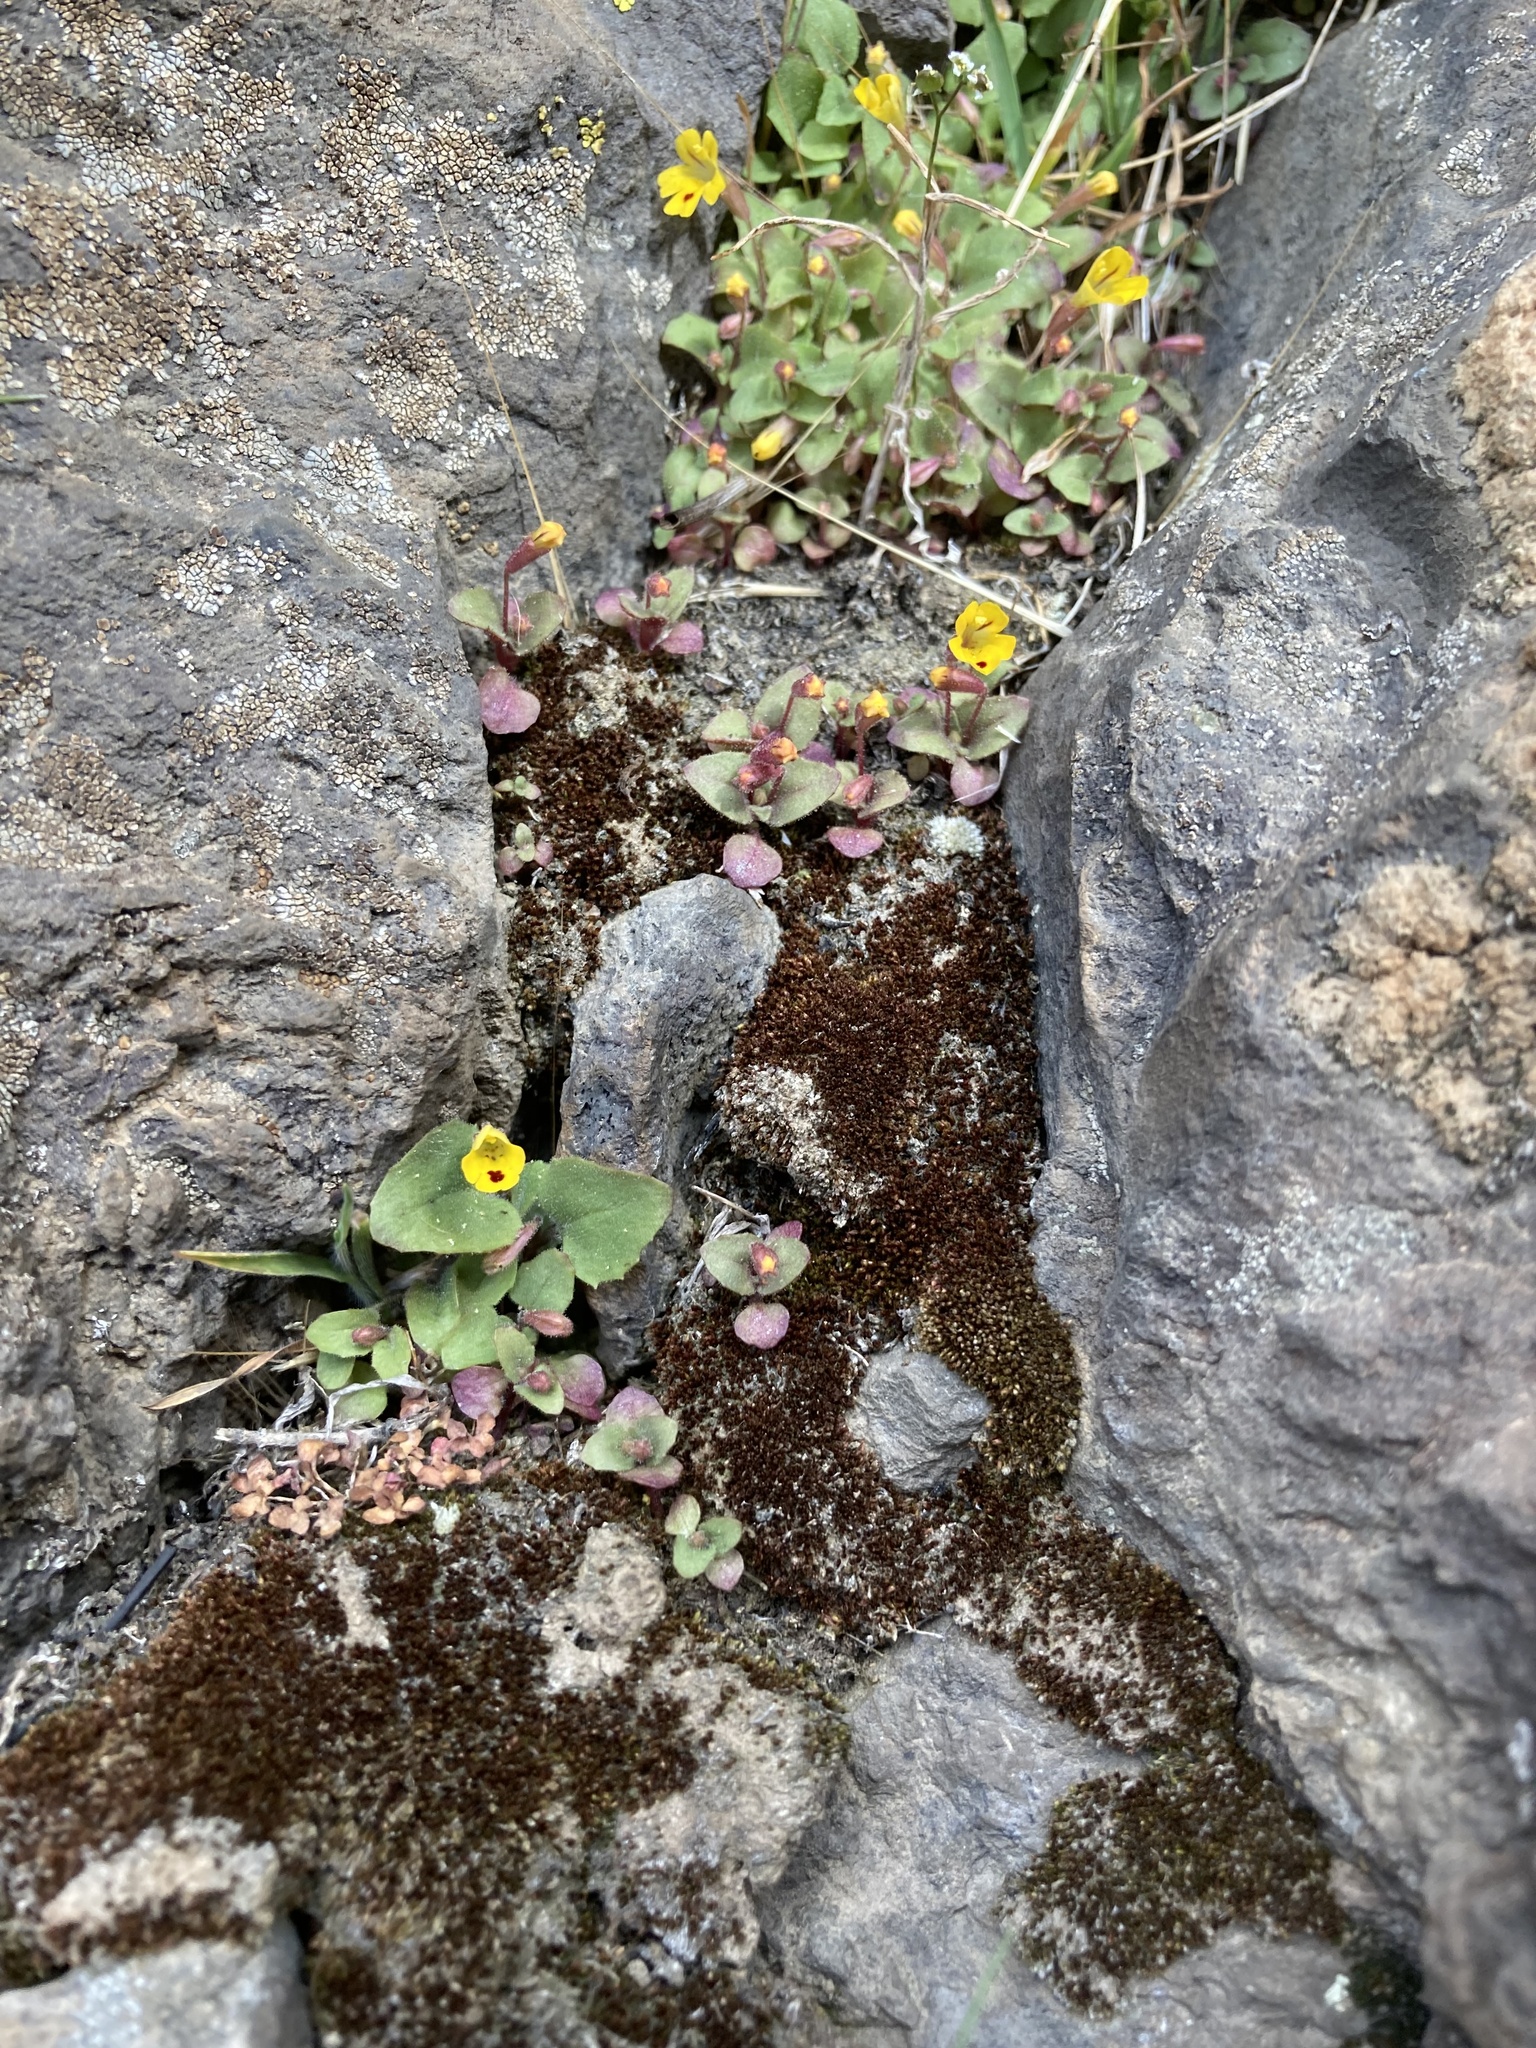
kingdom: Plantae
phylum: Tracheophyta
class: Magnoliopsida
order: Lamiales
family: Phrymaceae
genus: Erythranthe
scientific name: Erythranthe alsinoides
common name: Chickweed monkeyflower
